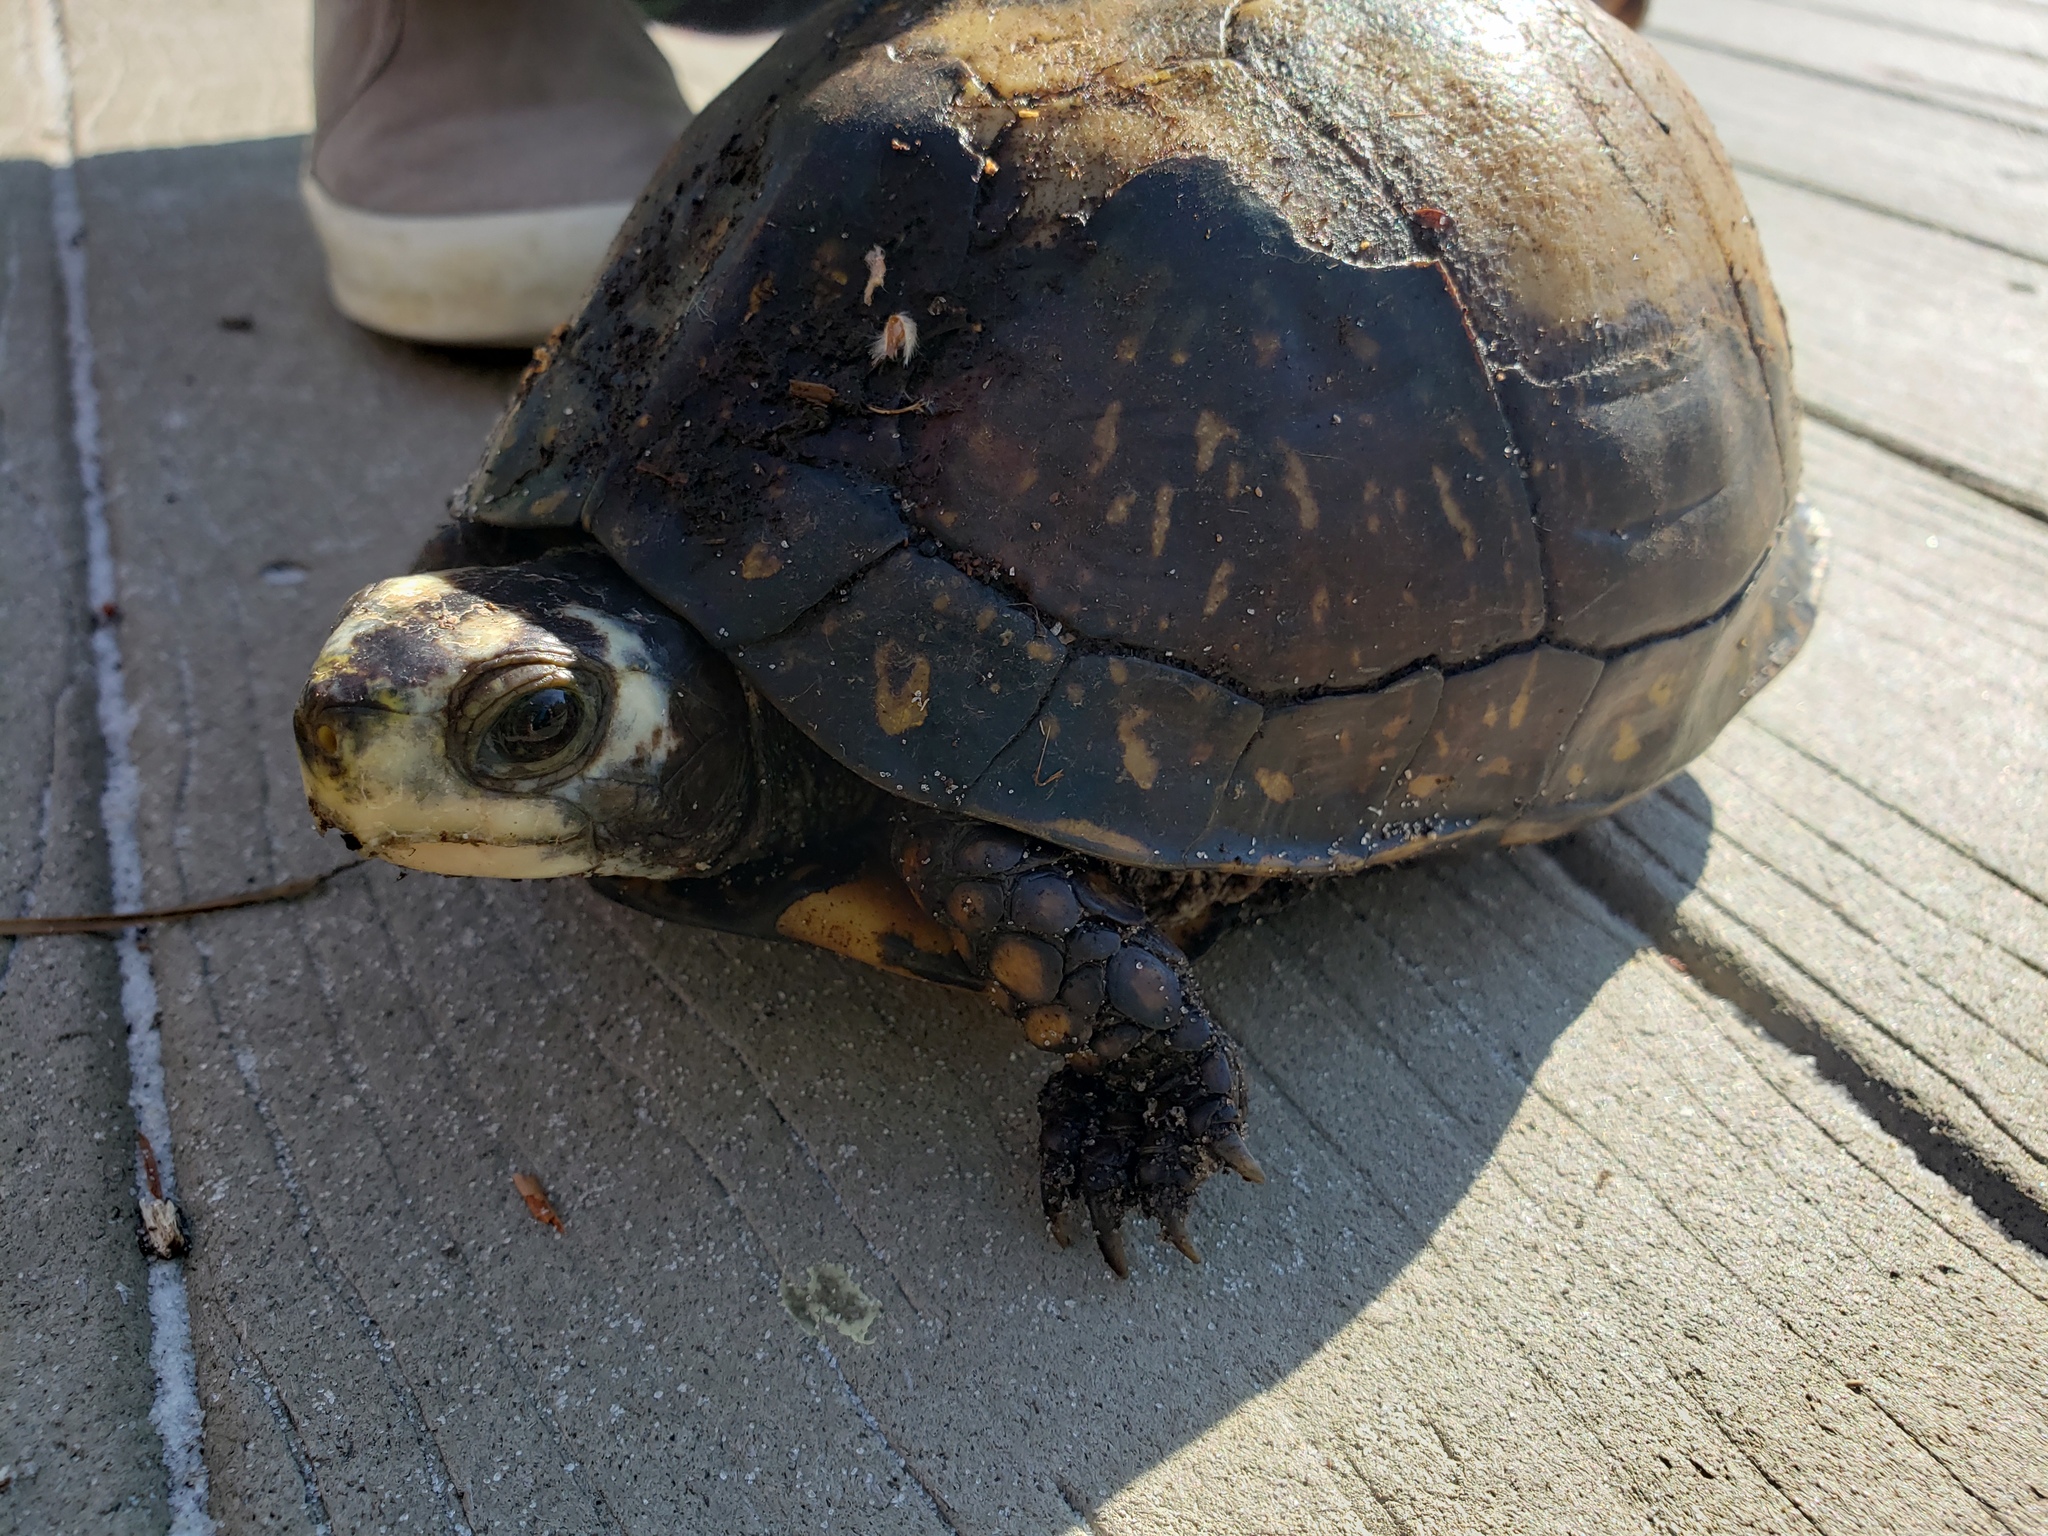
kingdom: Animalia
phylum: Chordata
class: Testudines
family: Emydidae
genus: Terrapene
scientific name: Terrapene carolina
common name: Common box turtle
